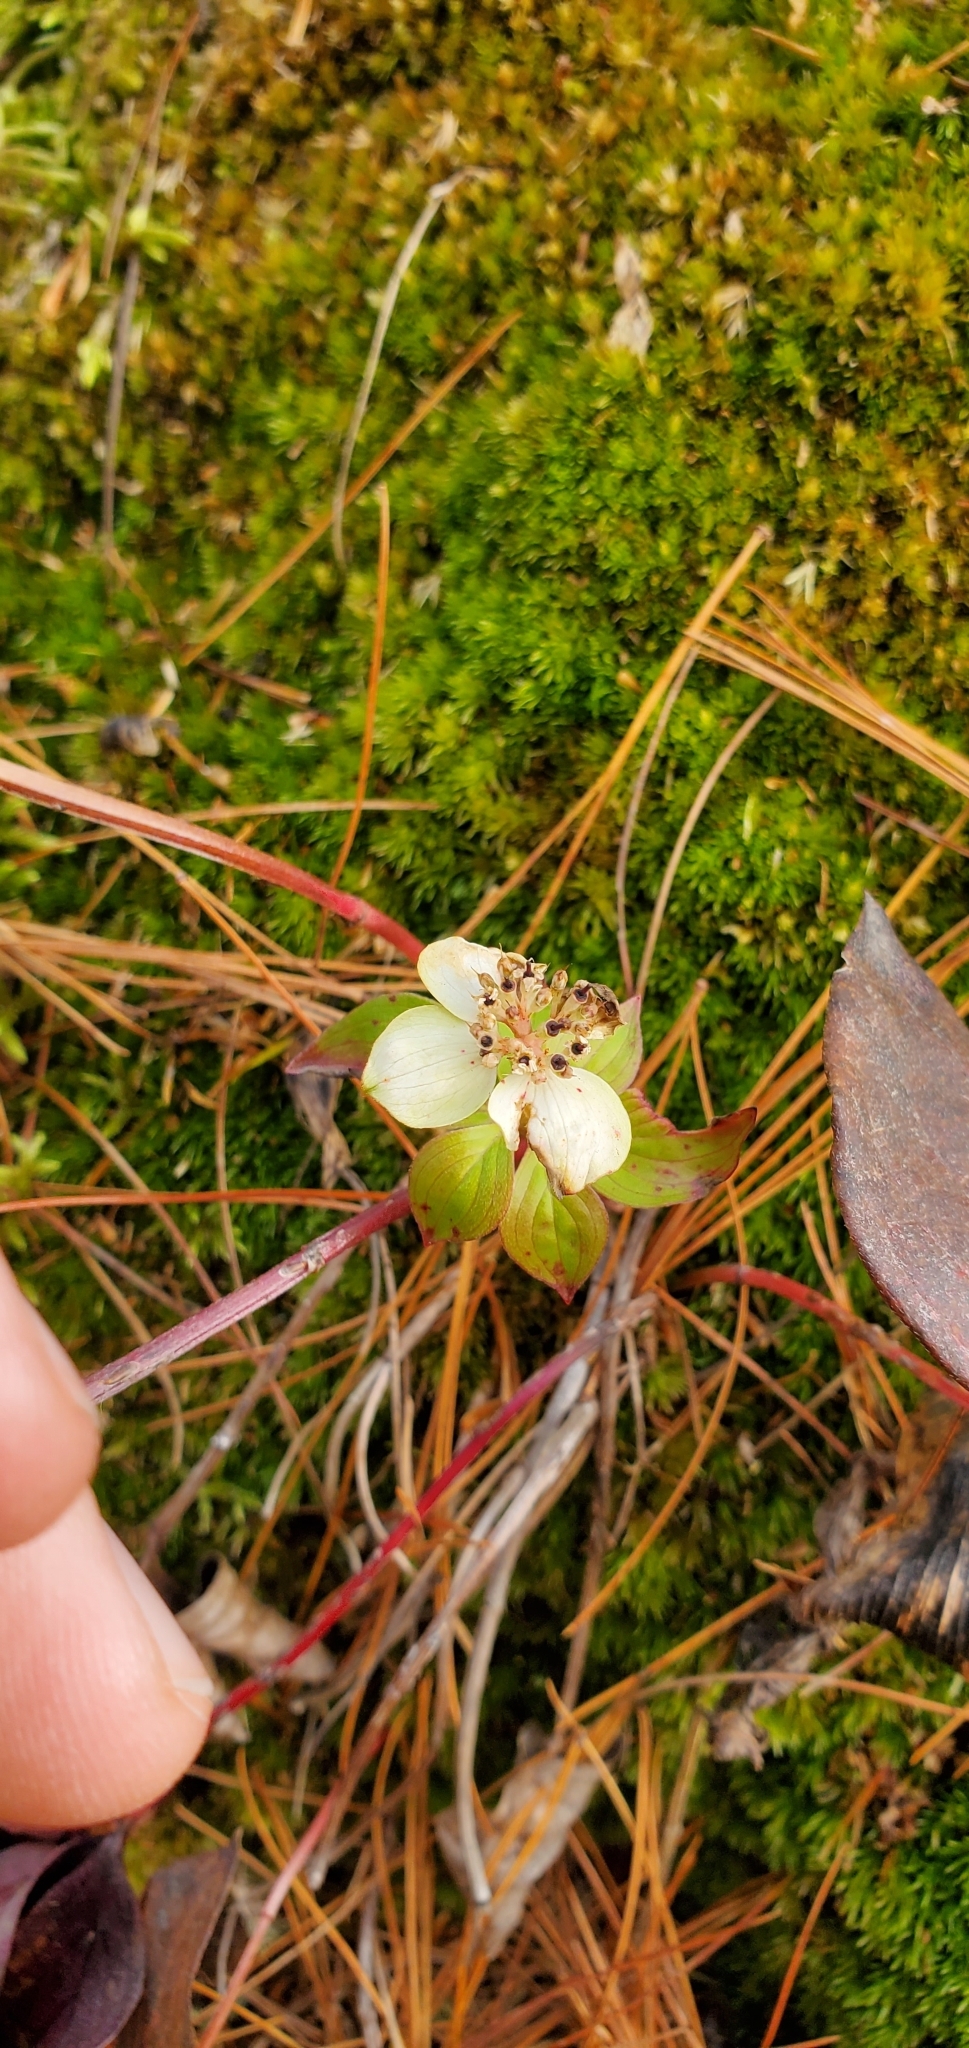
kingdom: Plantae
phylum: Tracheophyta
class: Magnoliopsida
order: Cornales
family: Cornaceae
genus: Cornus
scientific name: Cornus canadensis
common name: Creeping dogwood
